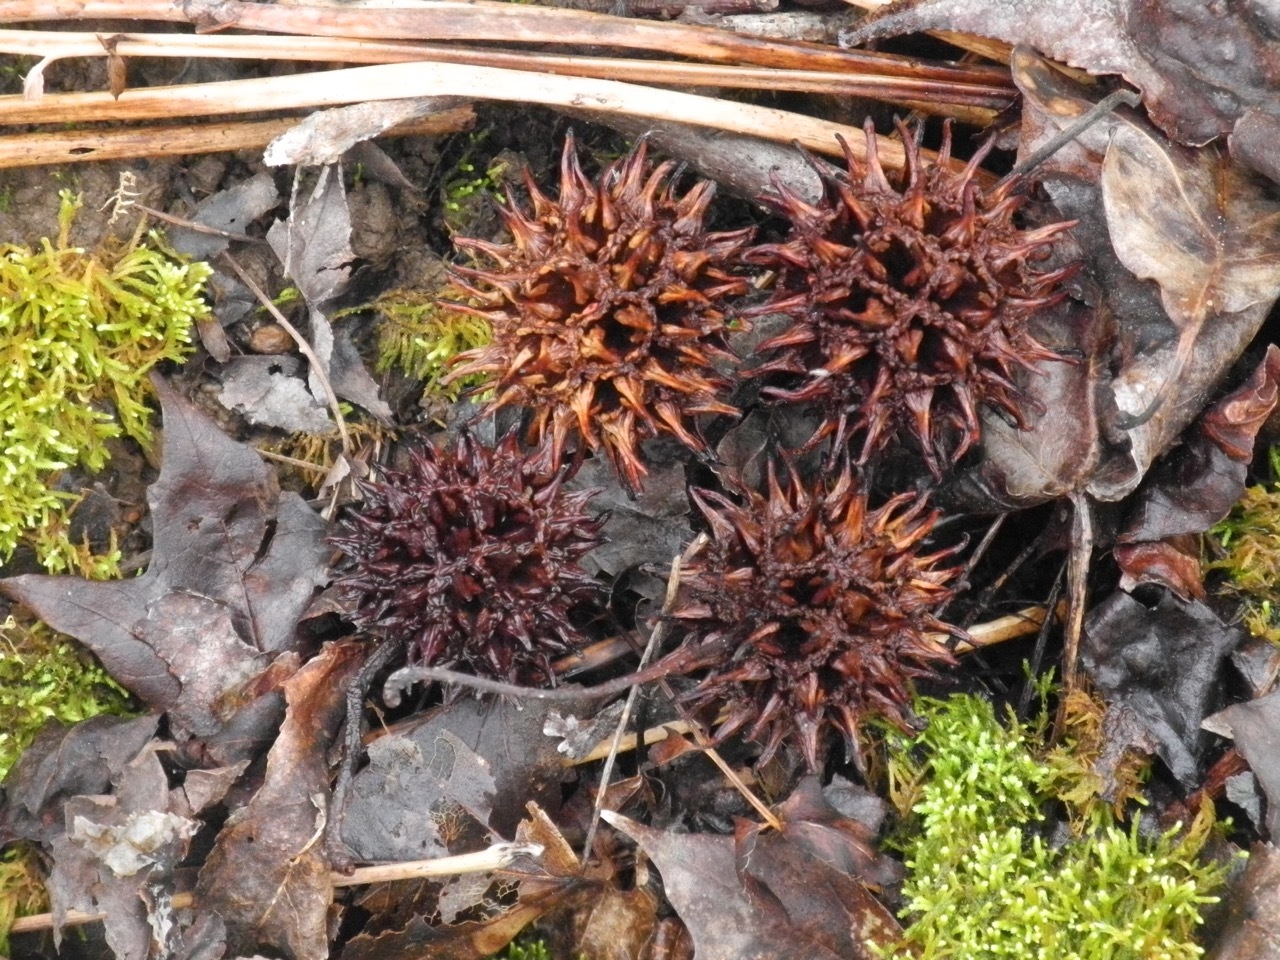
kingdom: Plantae
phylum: Tracheophyta
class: Magnoliopsida
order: Saxifragales
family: Altingiaceae
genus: Liquidambar
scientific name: Liquidambar styraciflua
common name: Sweet gum
